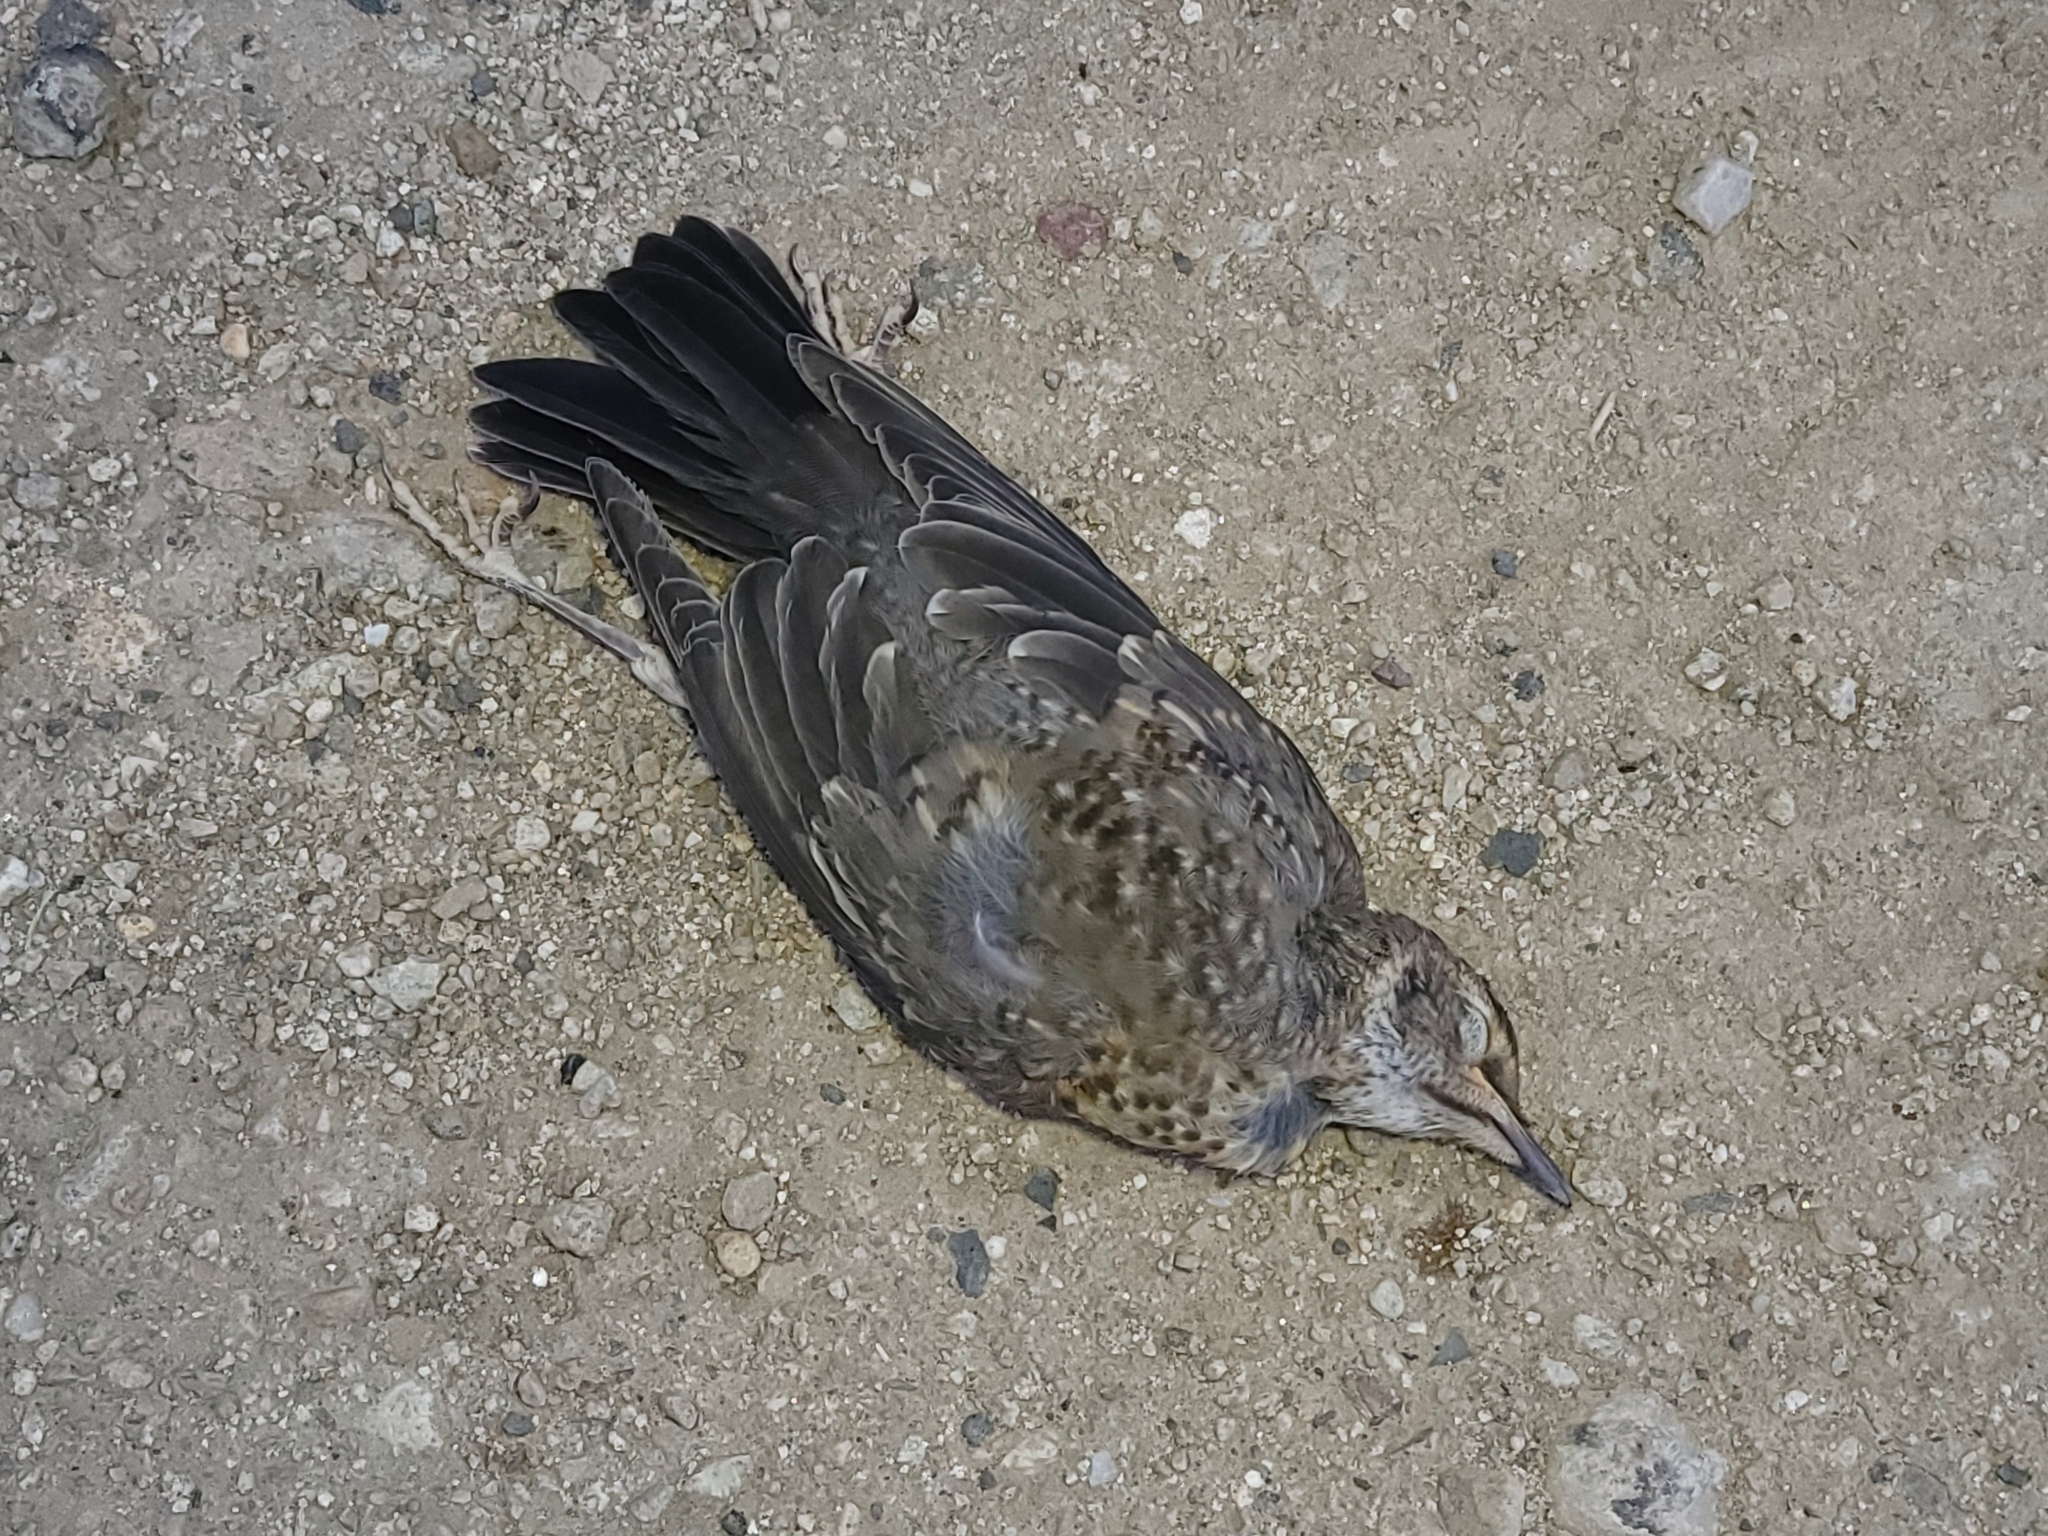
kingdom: Animalia
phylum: Chordata
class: Aves
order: Passeriformes
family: Mimidae
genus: Oreoscoptes
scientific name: Oreoscoptes montanus
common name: Sage thrasher
